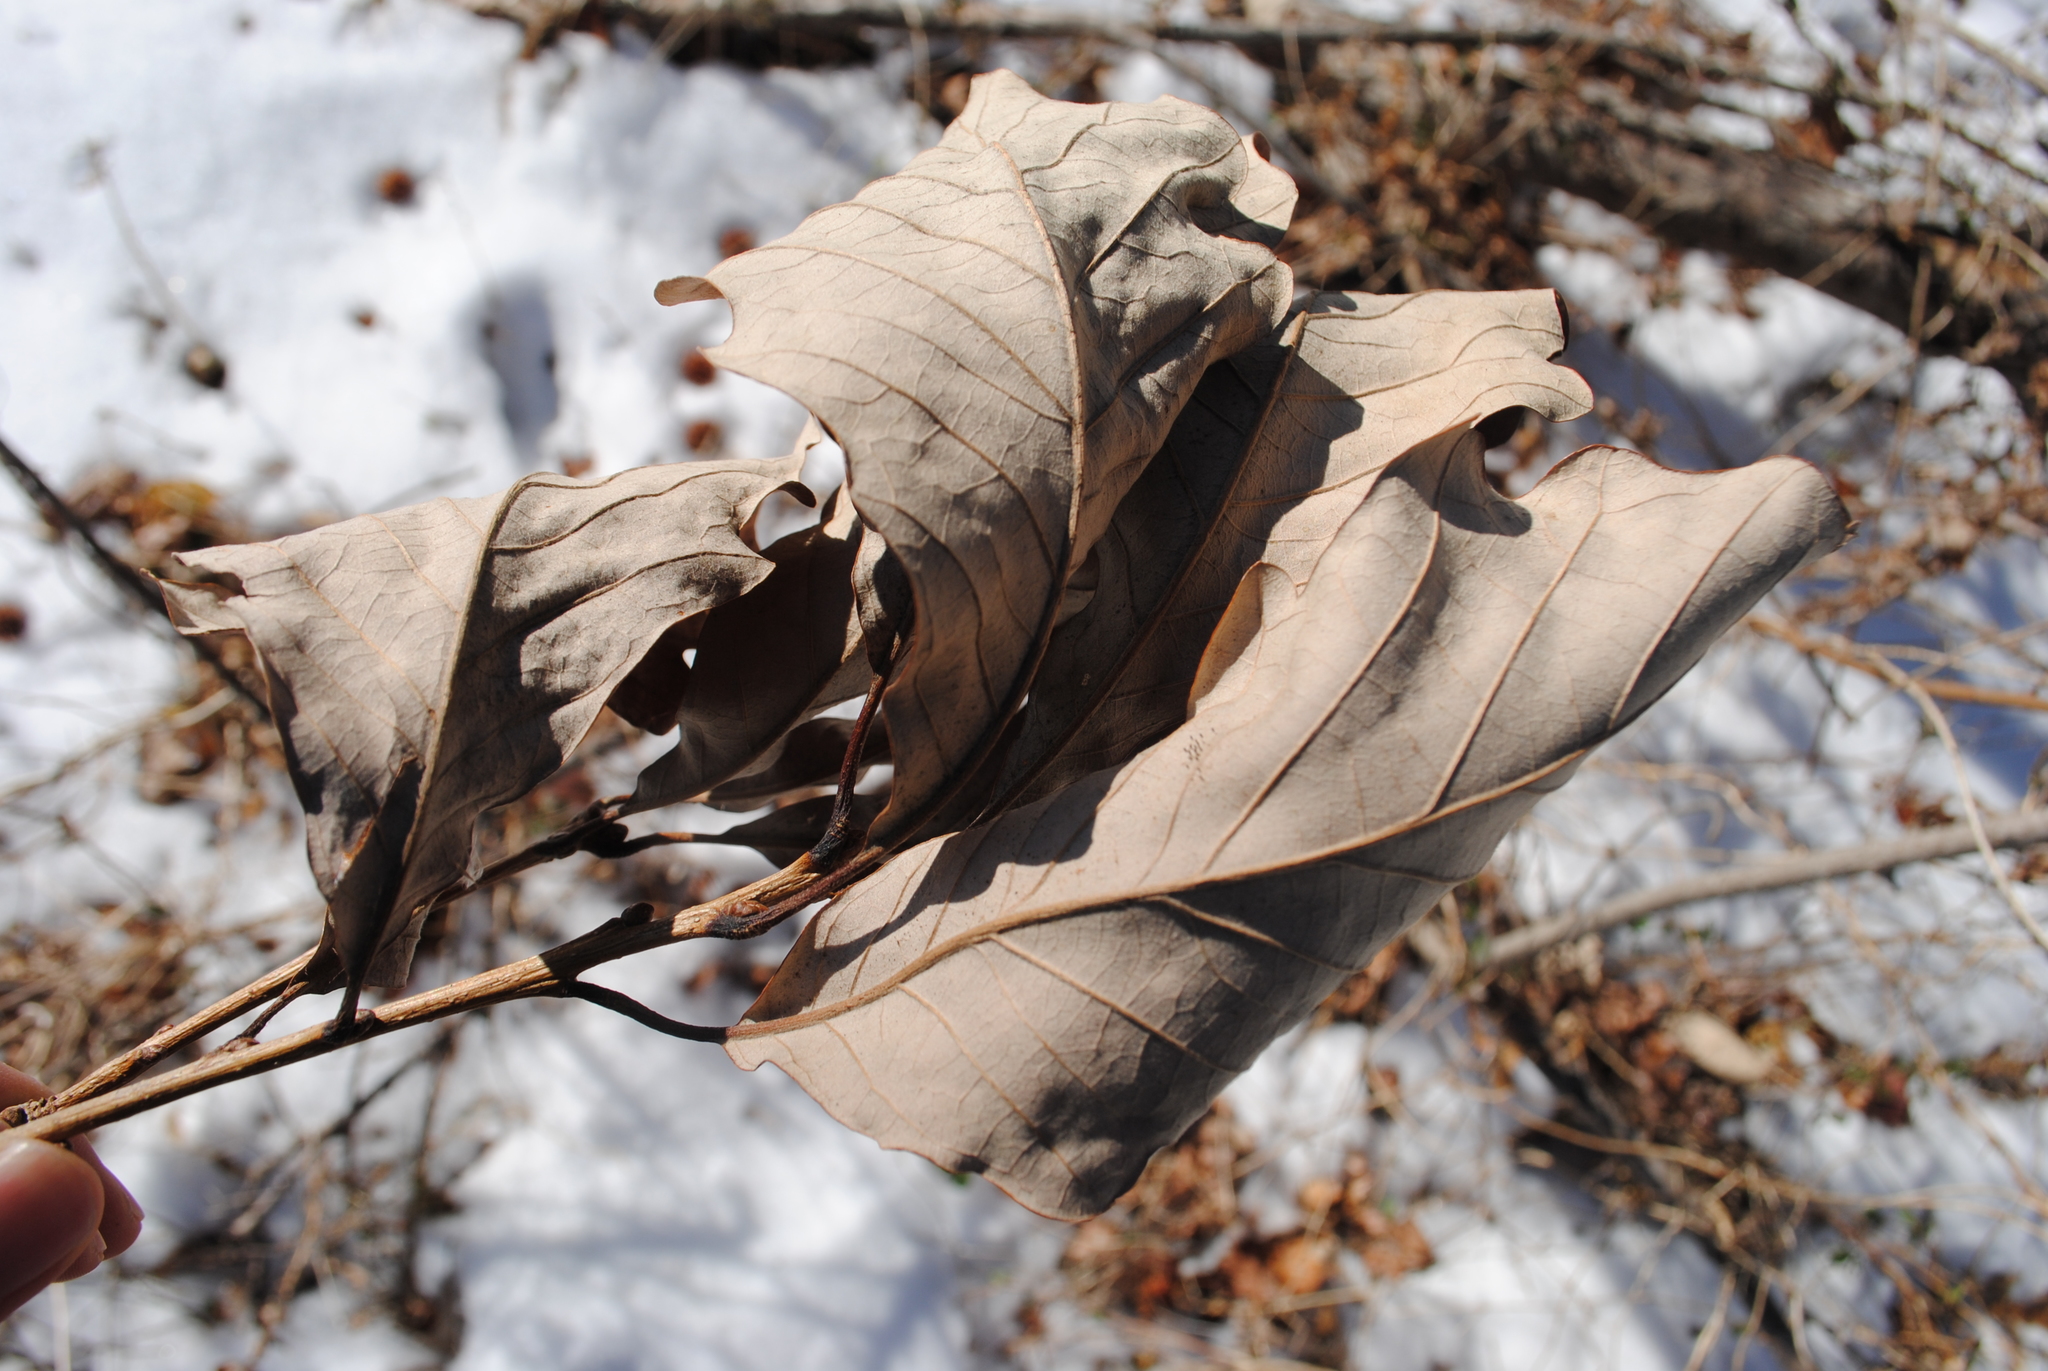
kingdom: Plantae
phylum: Tracheophyta
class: Magnoliopsida
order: Fagales
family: Fagaceae
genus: Quercus
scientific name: Quercus bicolor
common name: Swamp white oak
